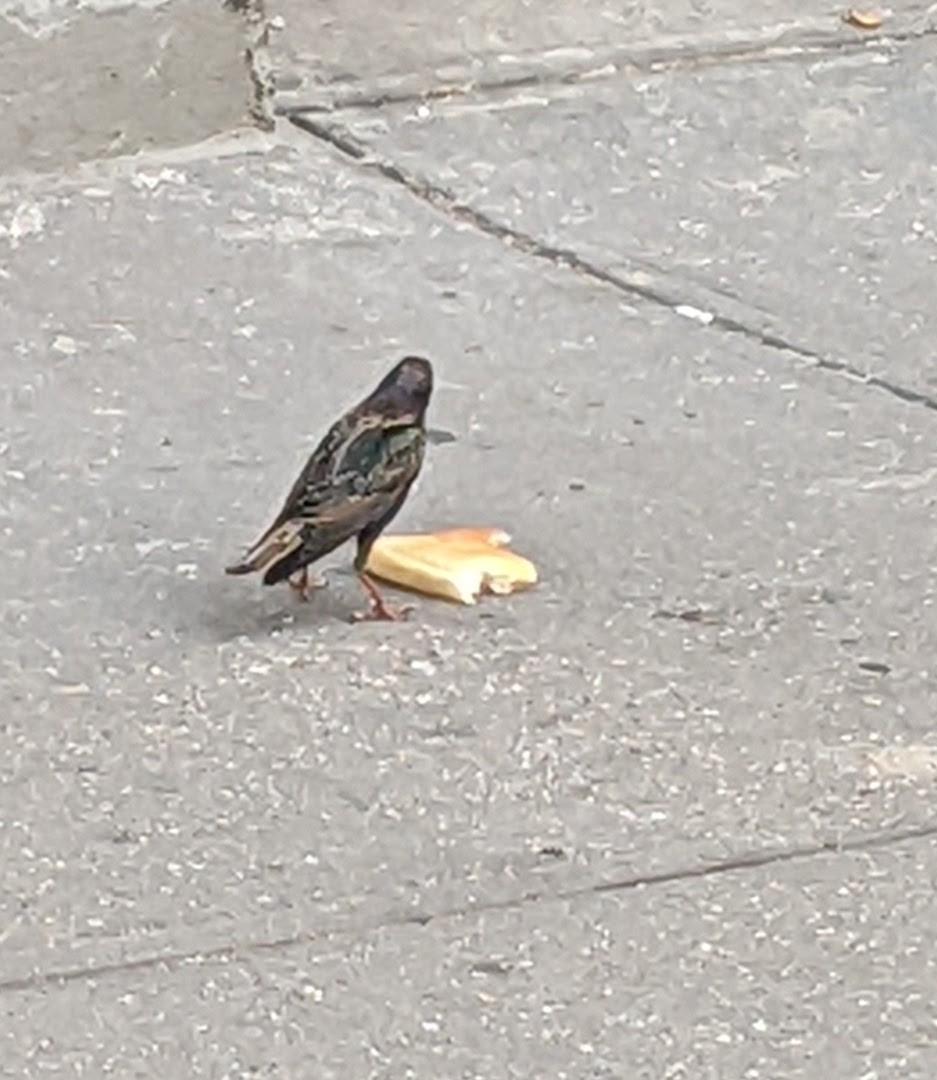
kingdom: Animalia
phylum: Chordata
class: Aves
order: Passeriformes
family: Sturnidae
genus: Sturnus
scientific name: Sturnus vulgaris
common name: Common starling
